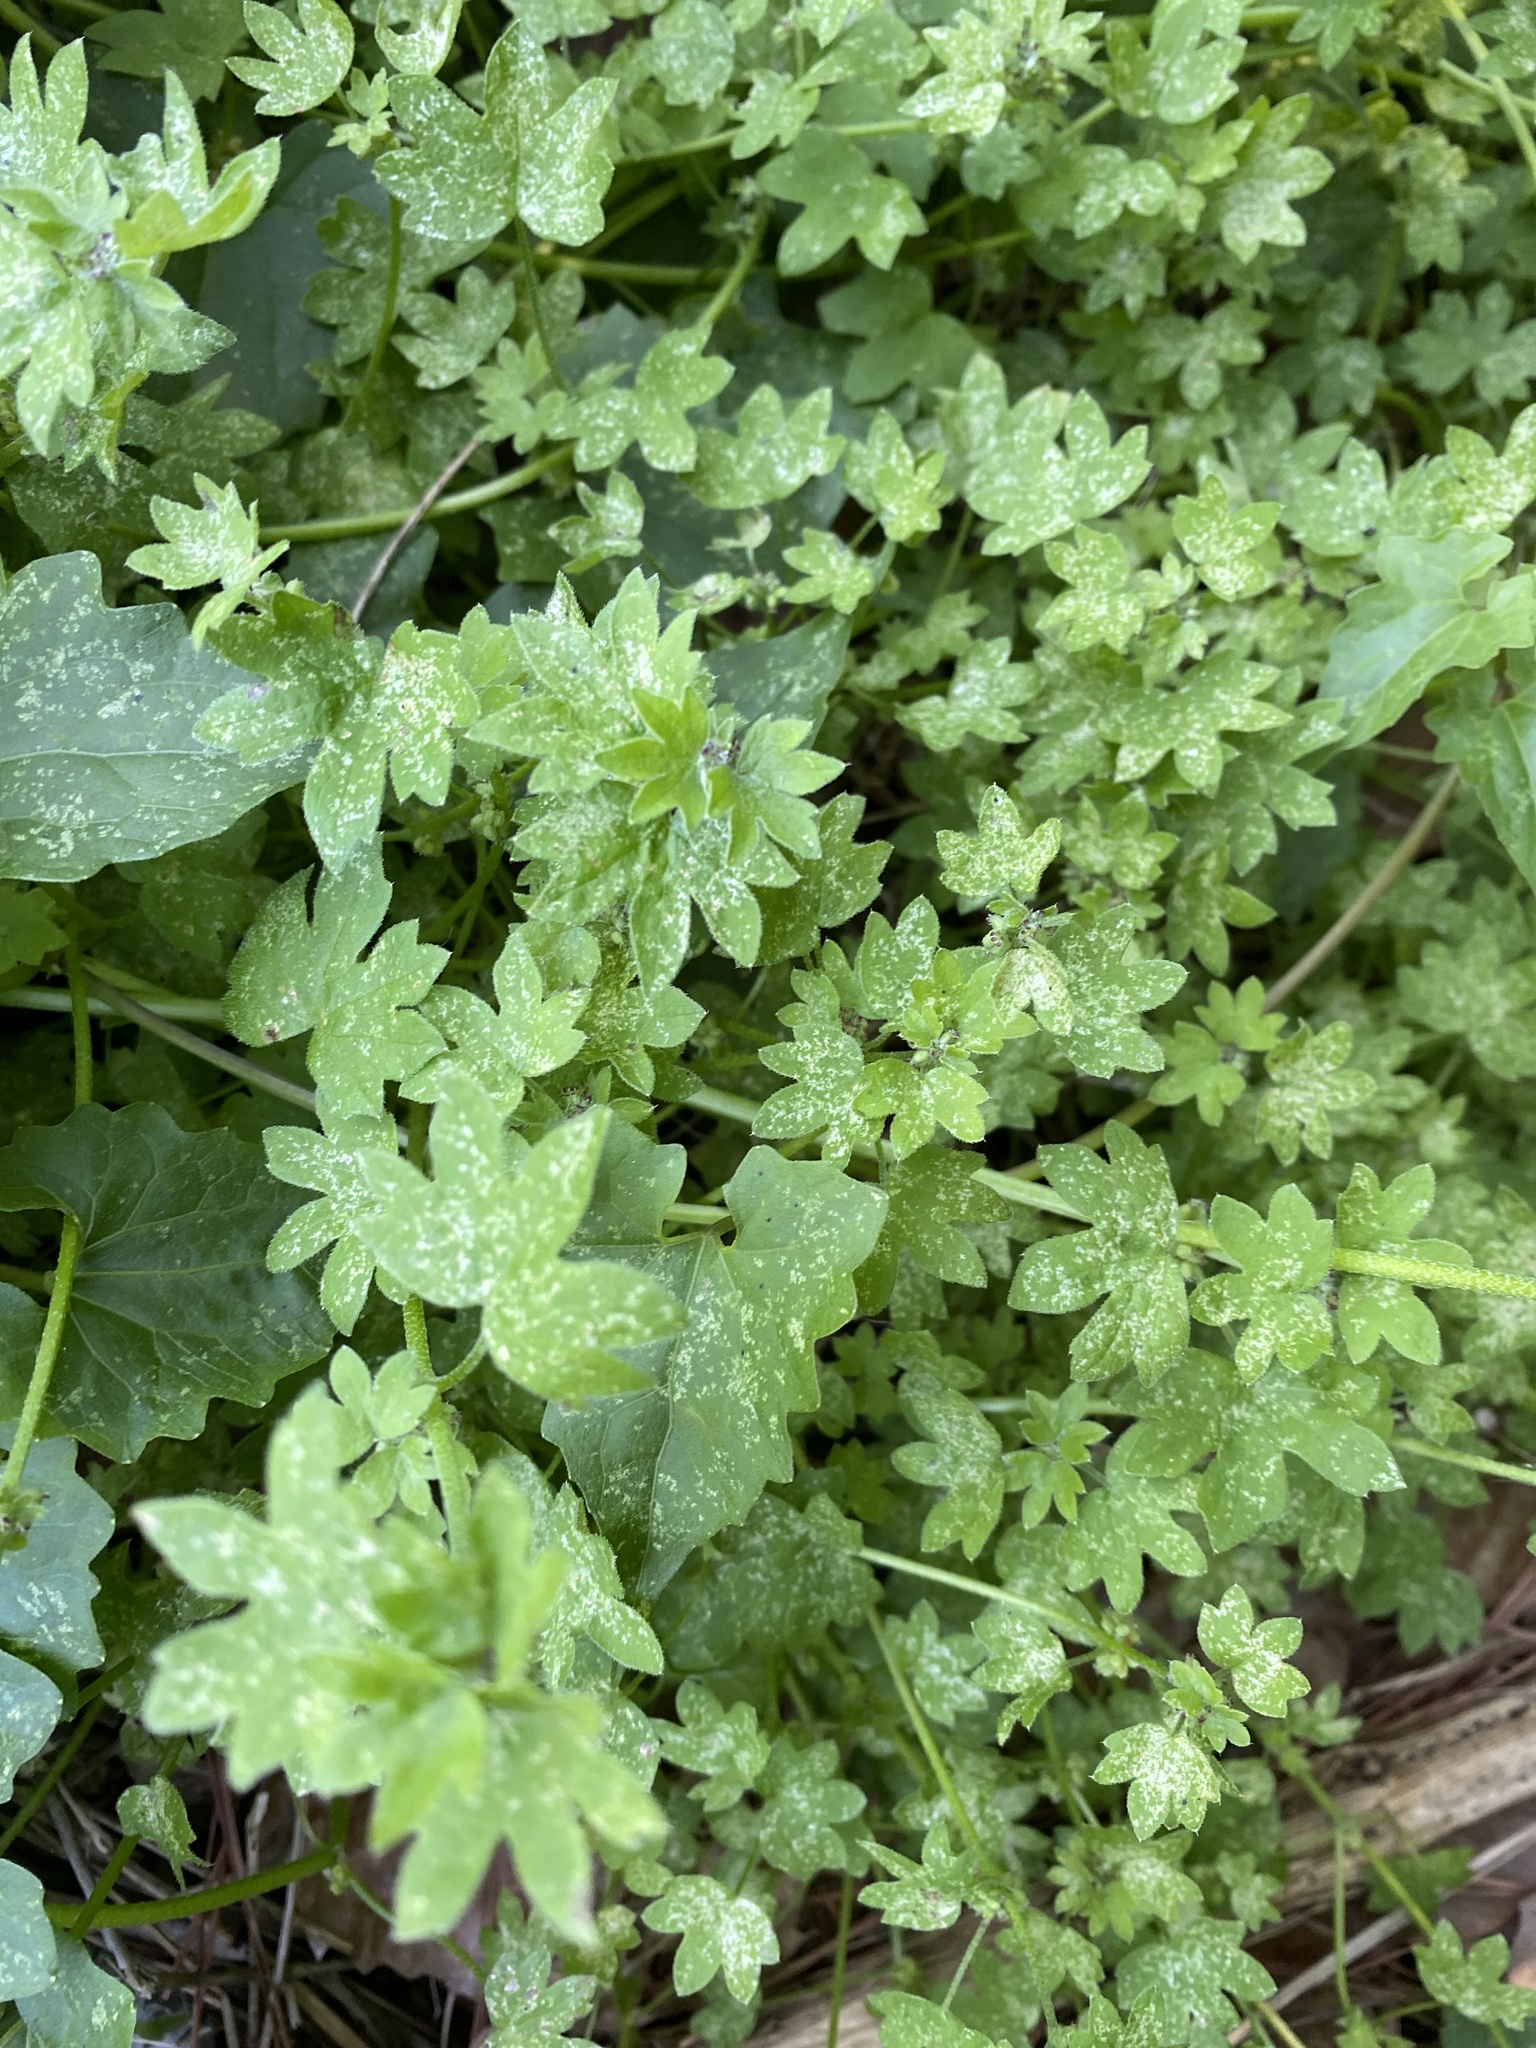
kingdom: Plantae
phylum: Tracheophyta
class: Magnoliopsida
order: Apiales
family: Apiaceae
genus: Bowlesia
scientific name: Bowlesia incana
